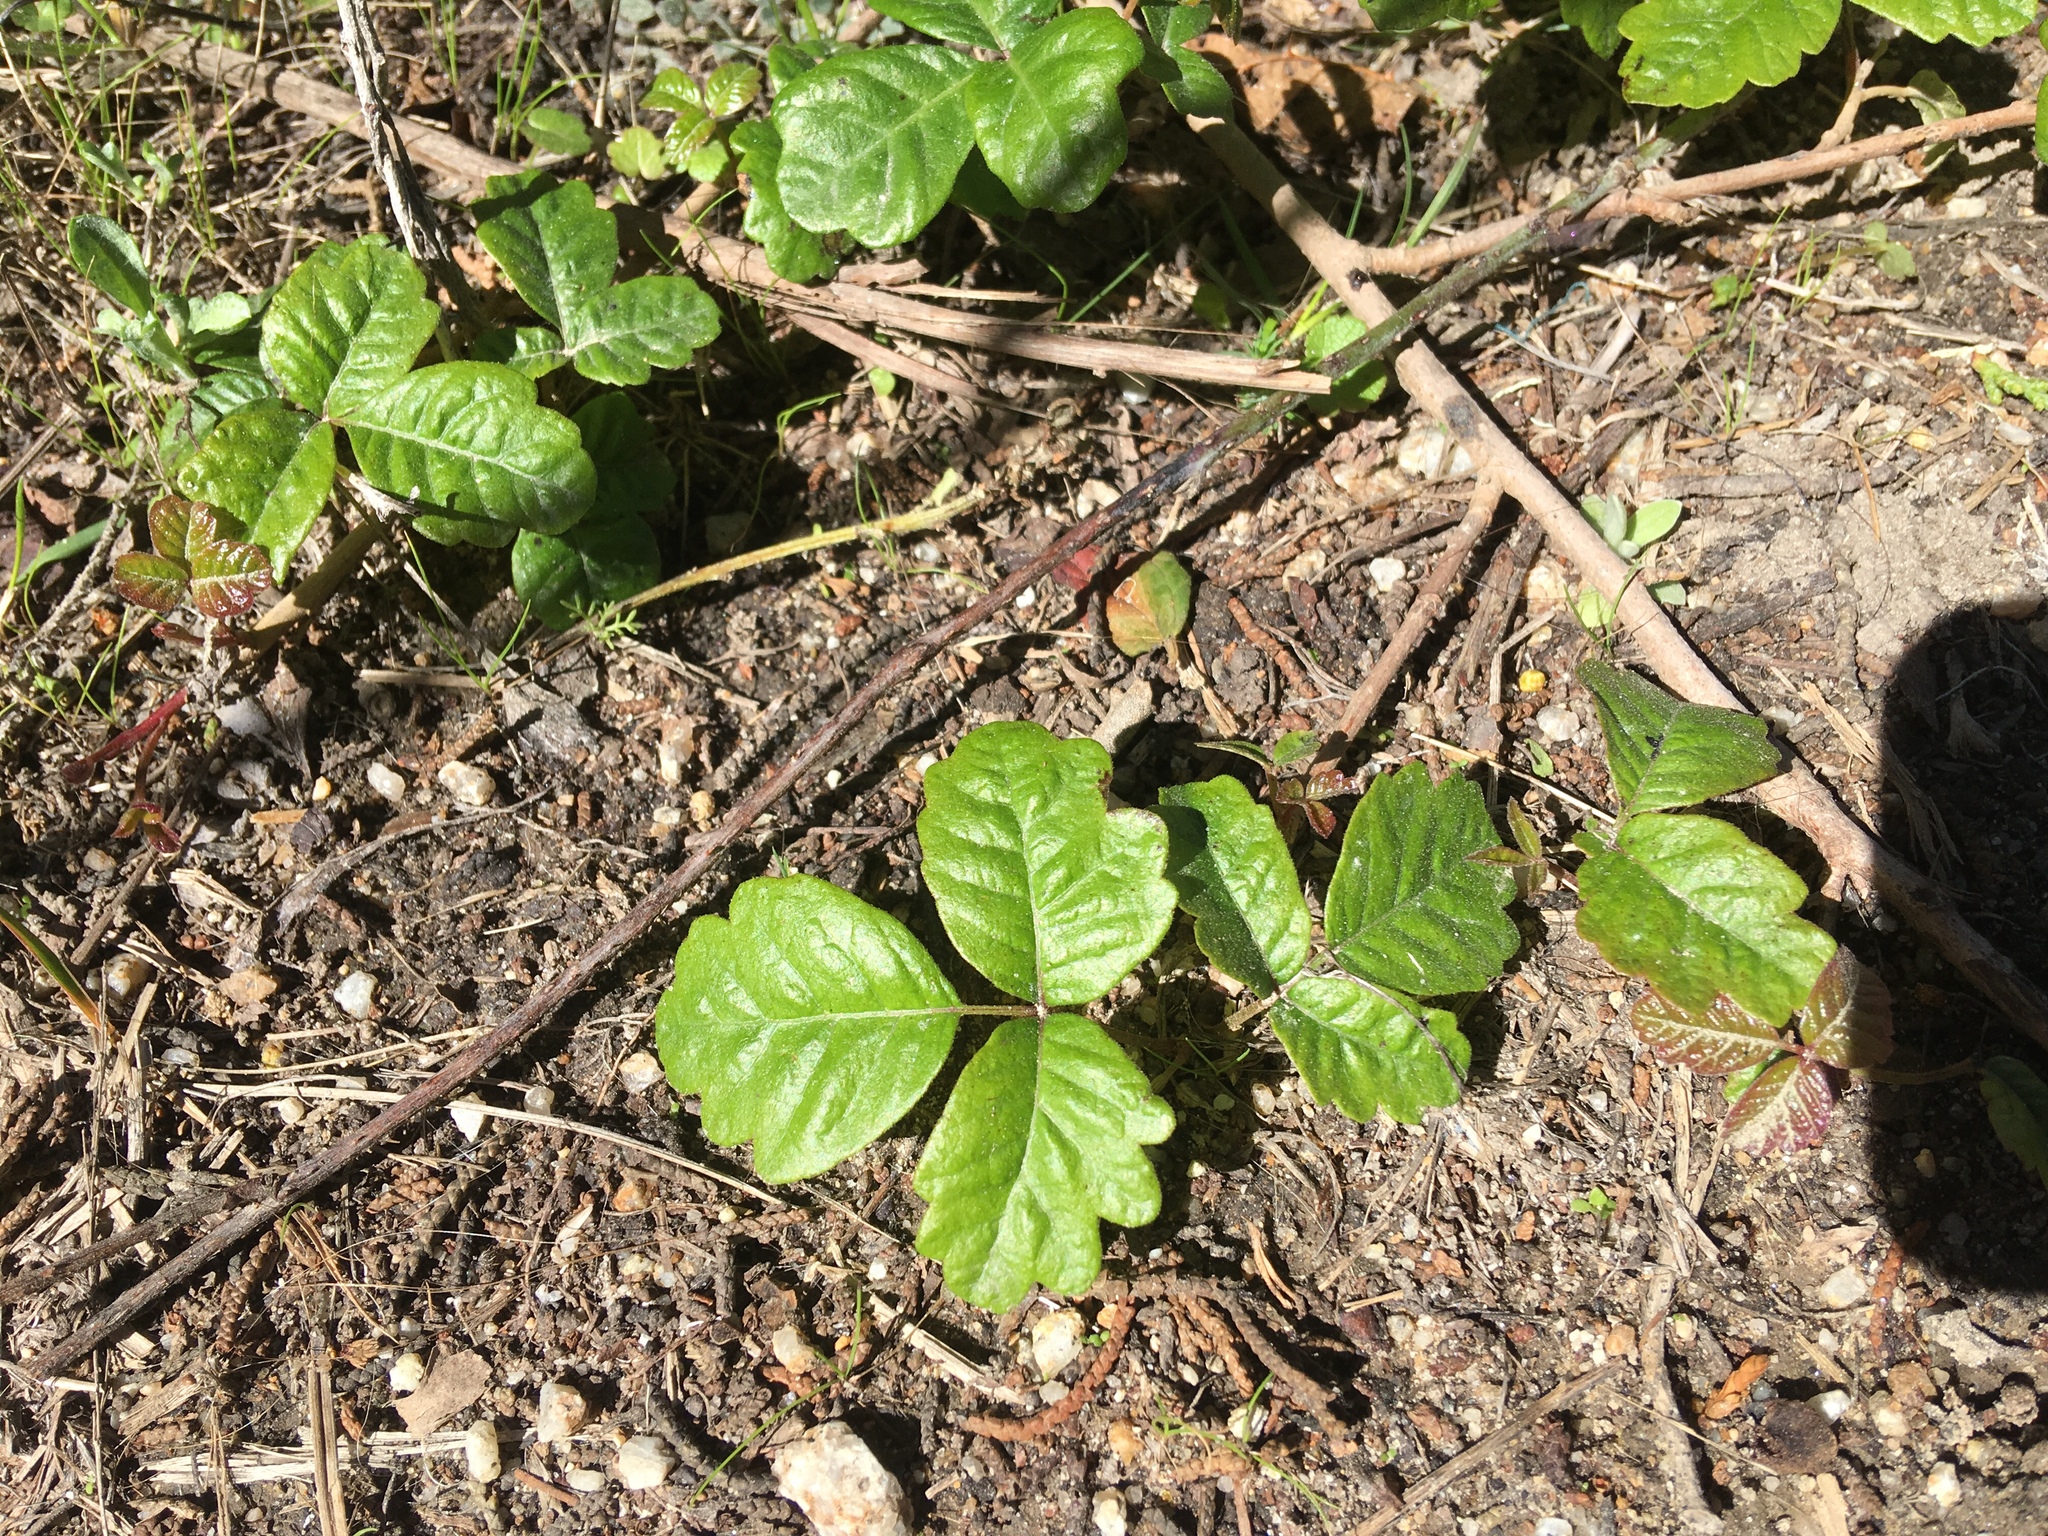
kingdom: Plantae
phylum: Tracheophyta
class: Magnoliopsida
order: Sapindales
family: Anacardiaceae
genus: Toxicodendron
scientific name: Toxicodendron diversilobum
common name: Pacific poison-oak
